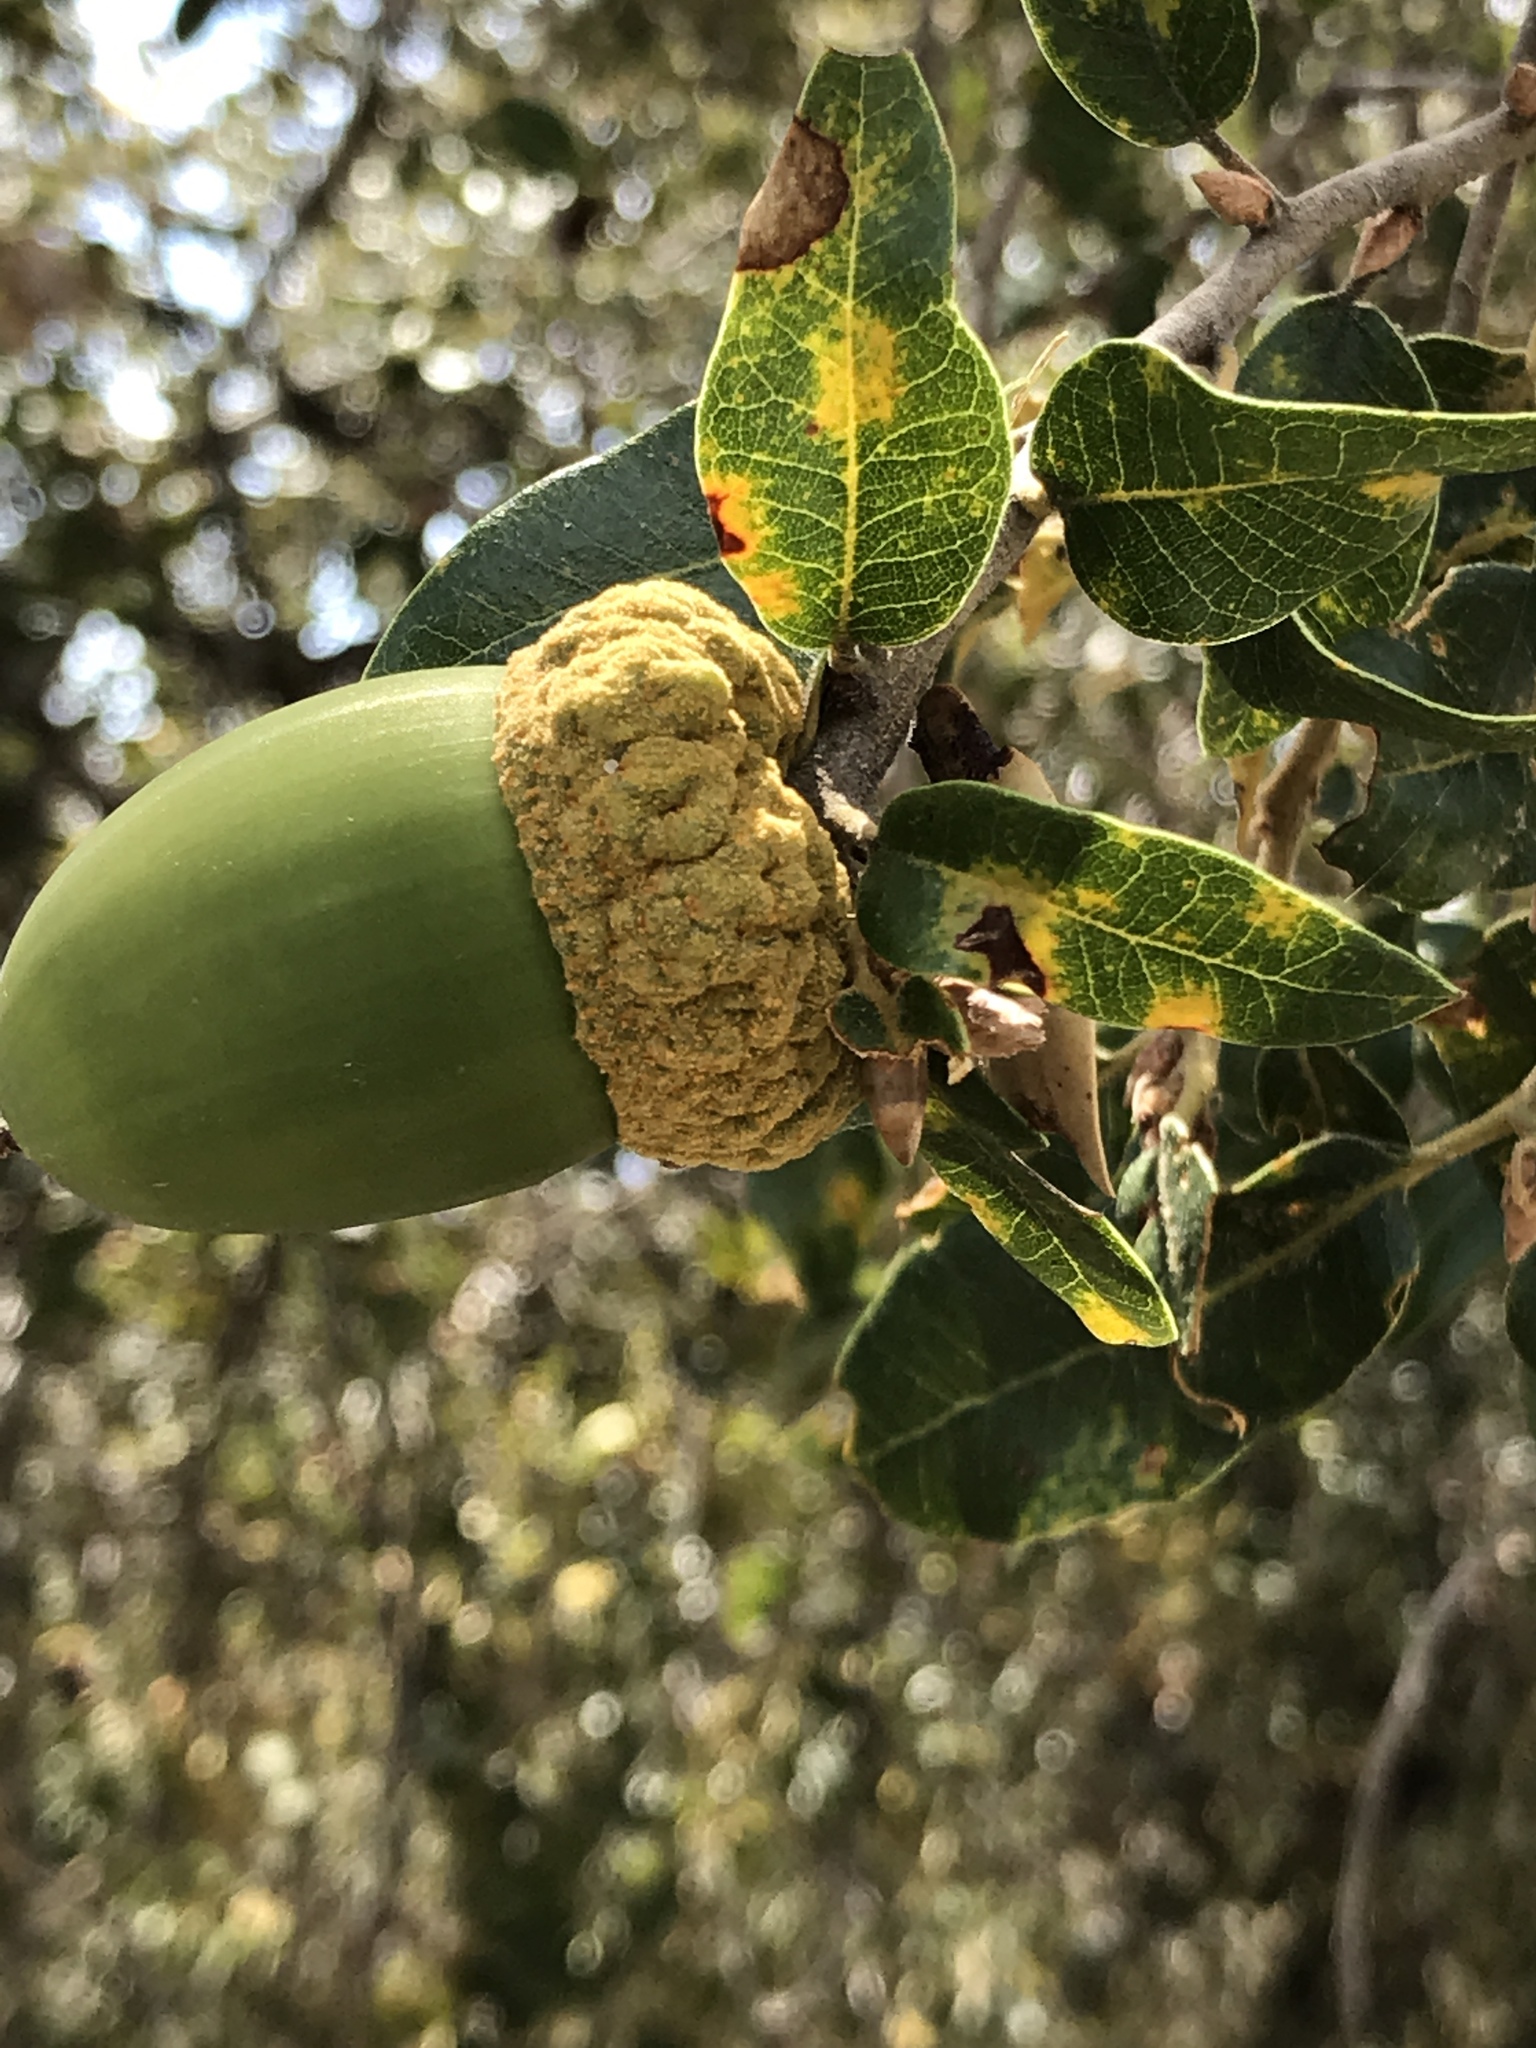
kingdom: Plantae
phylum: Tracheophyta
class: Magnoliopsida
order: Fagales
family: Fagaceae
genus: Quercus
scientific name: Quercus chrysolepis
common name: Canyon live oak
